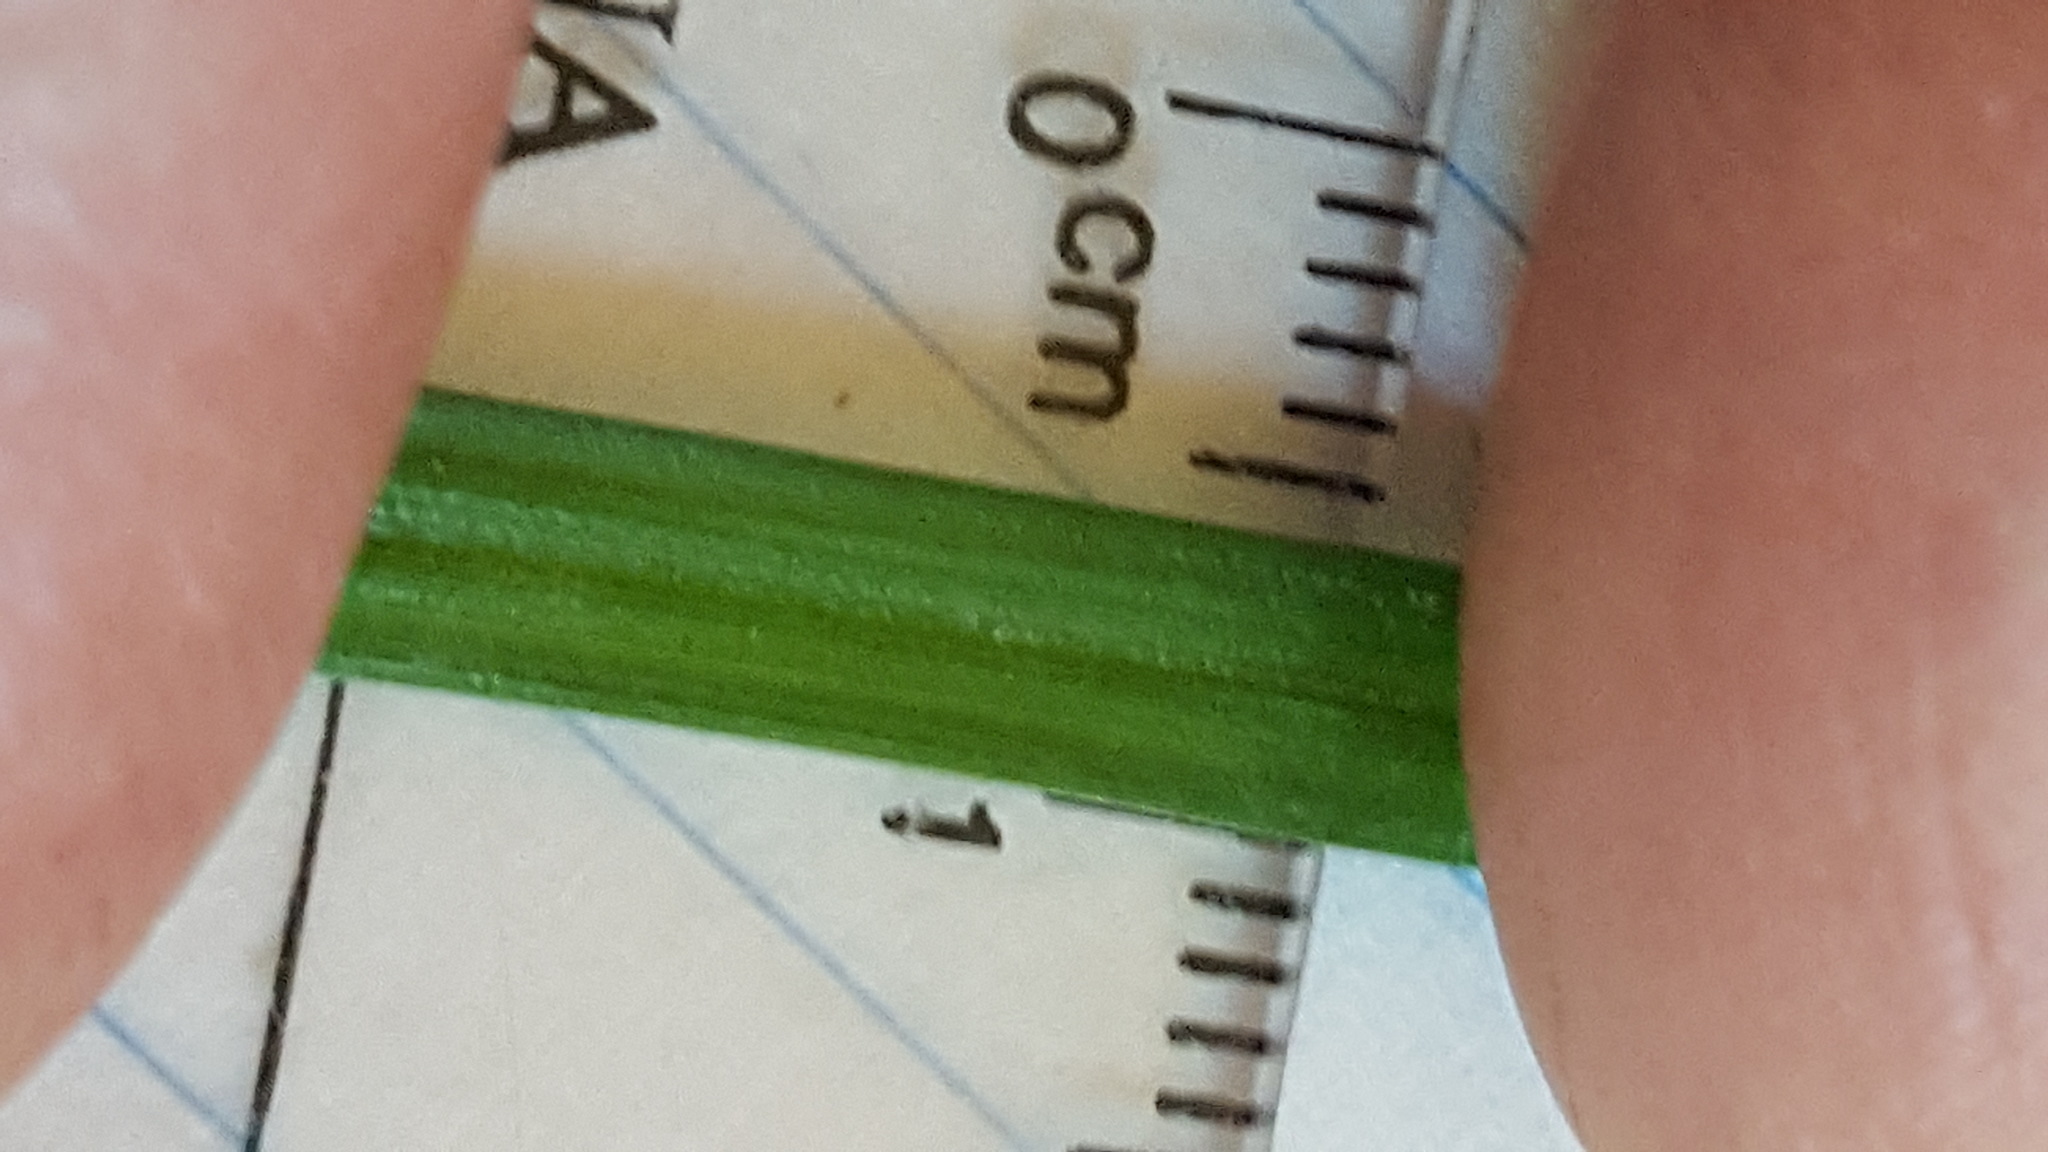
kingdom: Plantae
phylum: Tracheophyta
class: Liliopsida
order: Poales
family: Cyperaceae
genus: Carex
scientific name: Carex hystericina
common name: Bottlebrush sedge
